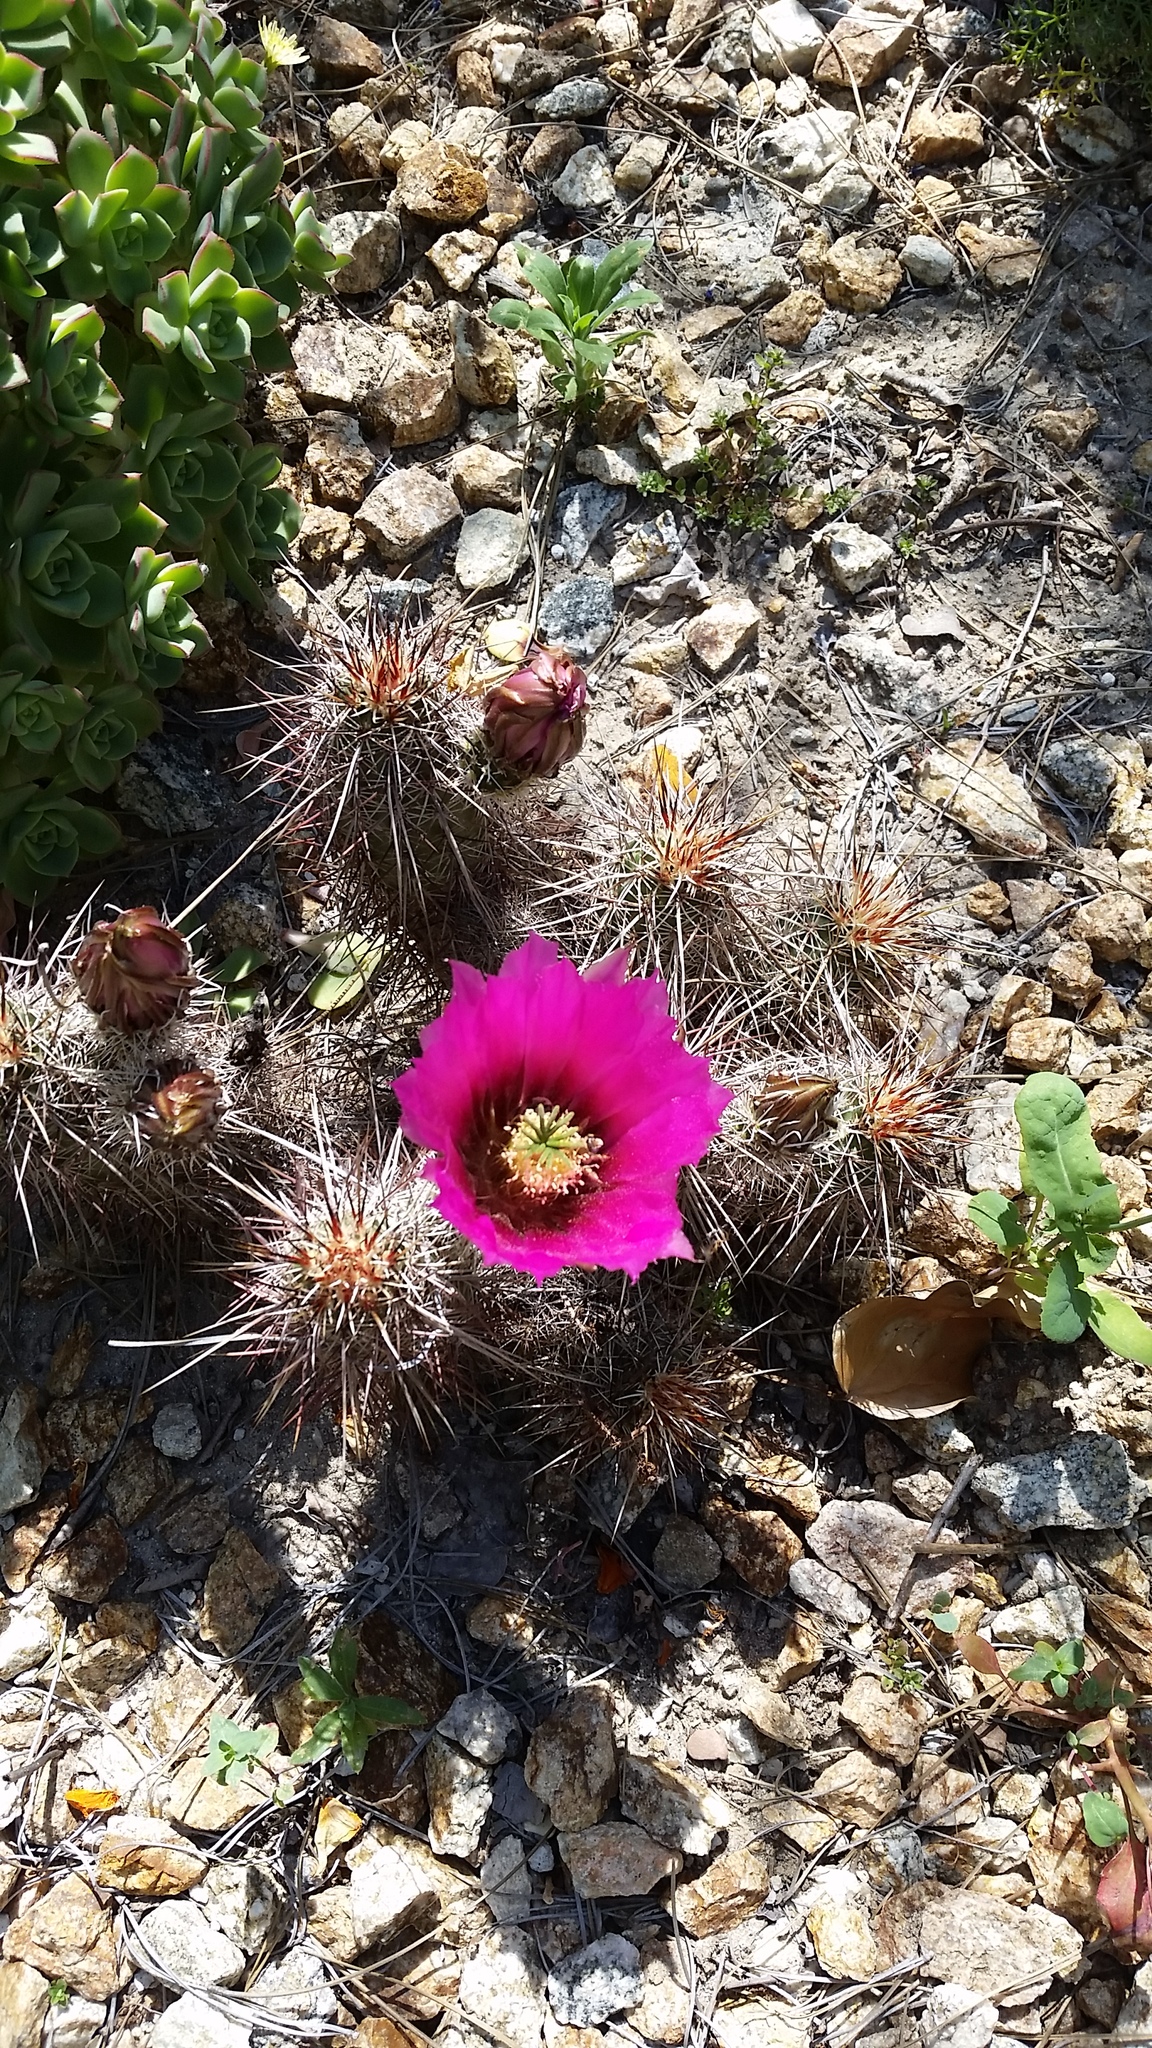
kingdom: Plantae
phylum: Tracheophyta
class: Magnoliopsida
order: Caryophyllales
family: Cactaceae
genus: Echinocereus
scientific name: Echinocereus engelmannii
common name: Engelmann's hedgehog cactus
